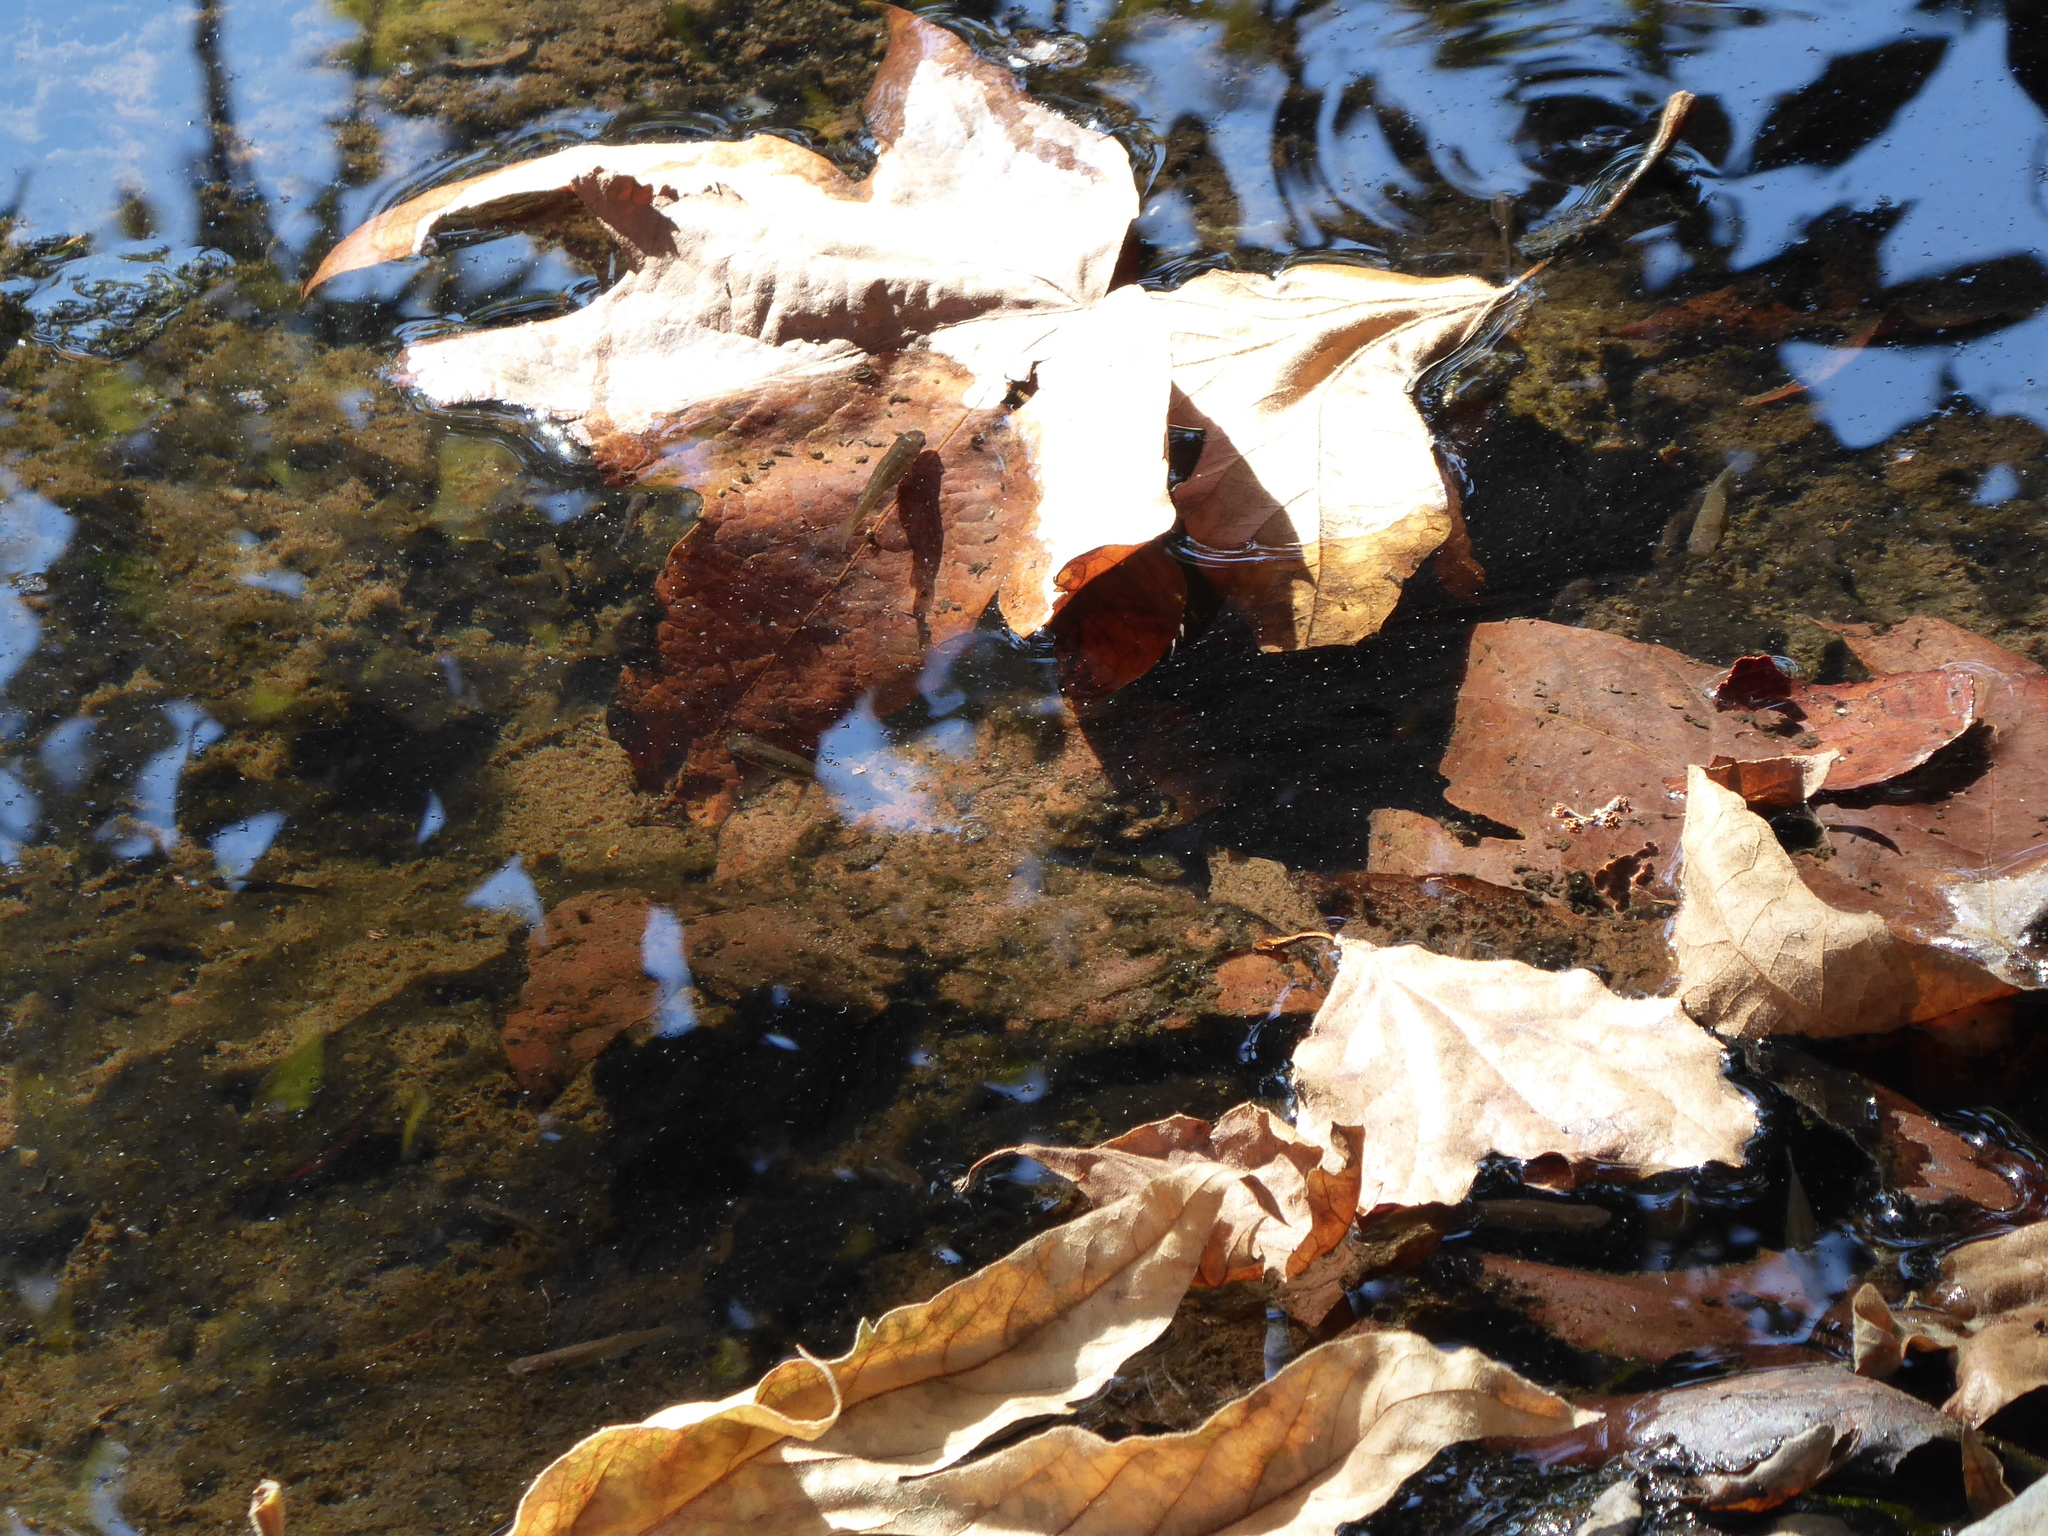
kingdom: Animalia
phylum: Chordata
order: Cyprinodontiformes
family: Poeciliidae
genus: Gambusia
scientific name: Gambusia affinis
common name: Mosquitofish
